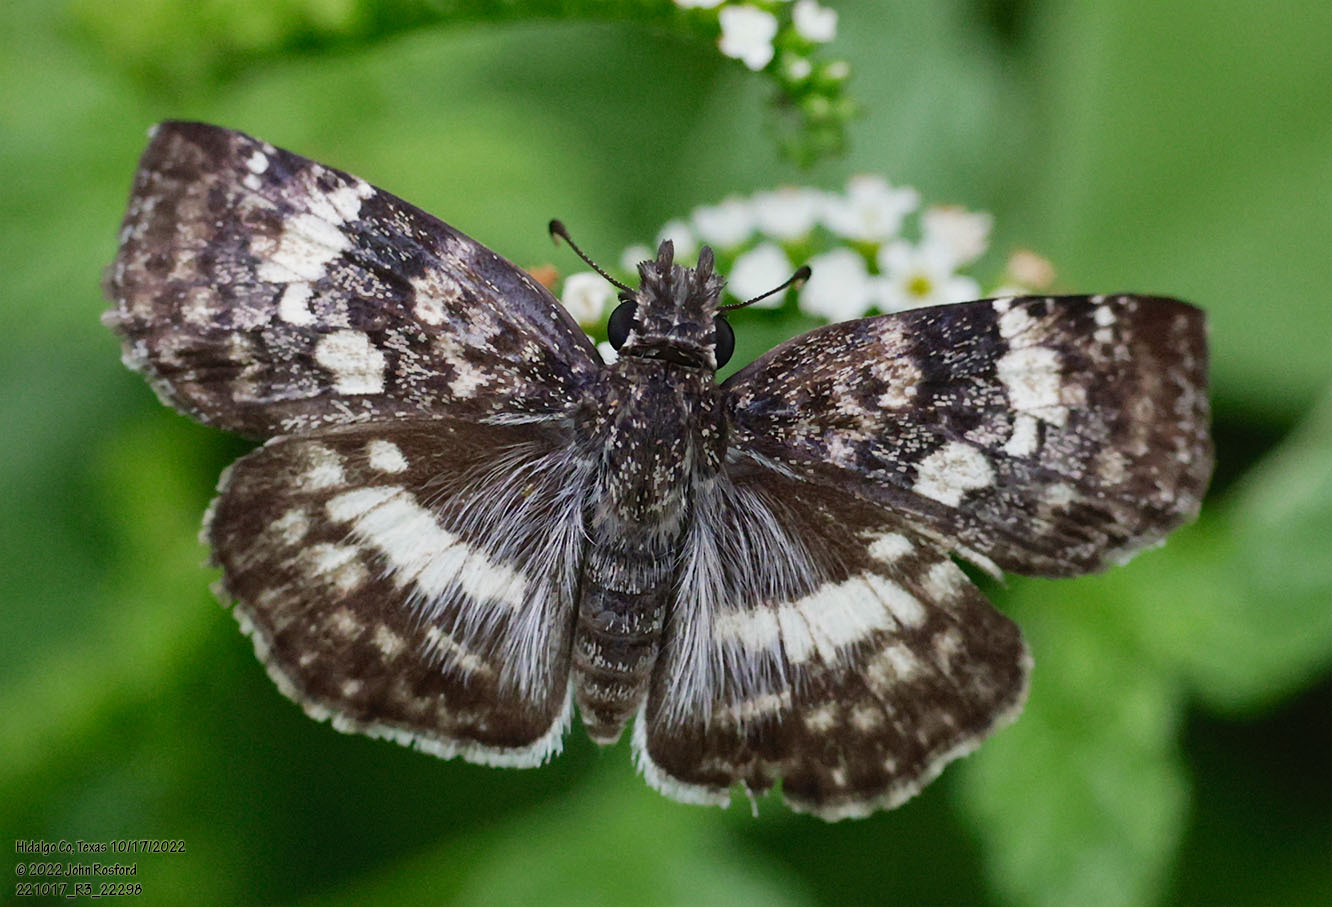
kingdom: Animalia
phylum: Arthropoda
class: Insecta
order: Lepidoptera
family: Hesperiidae
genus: Chiothion
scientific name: Chiothion georgina
